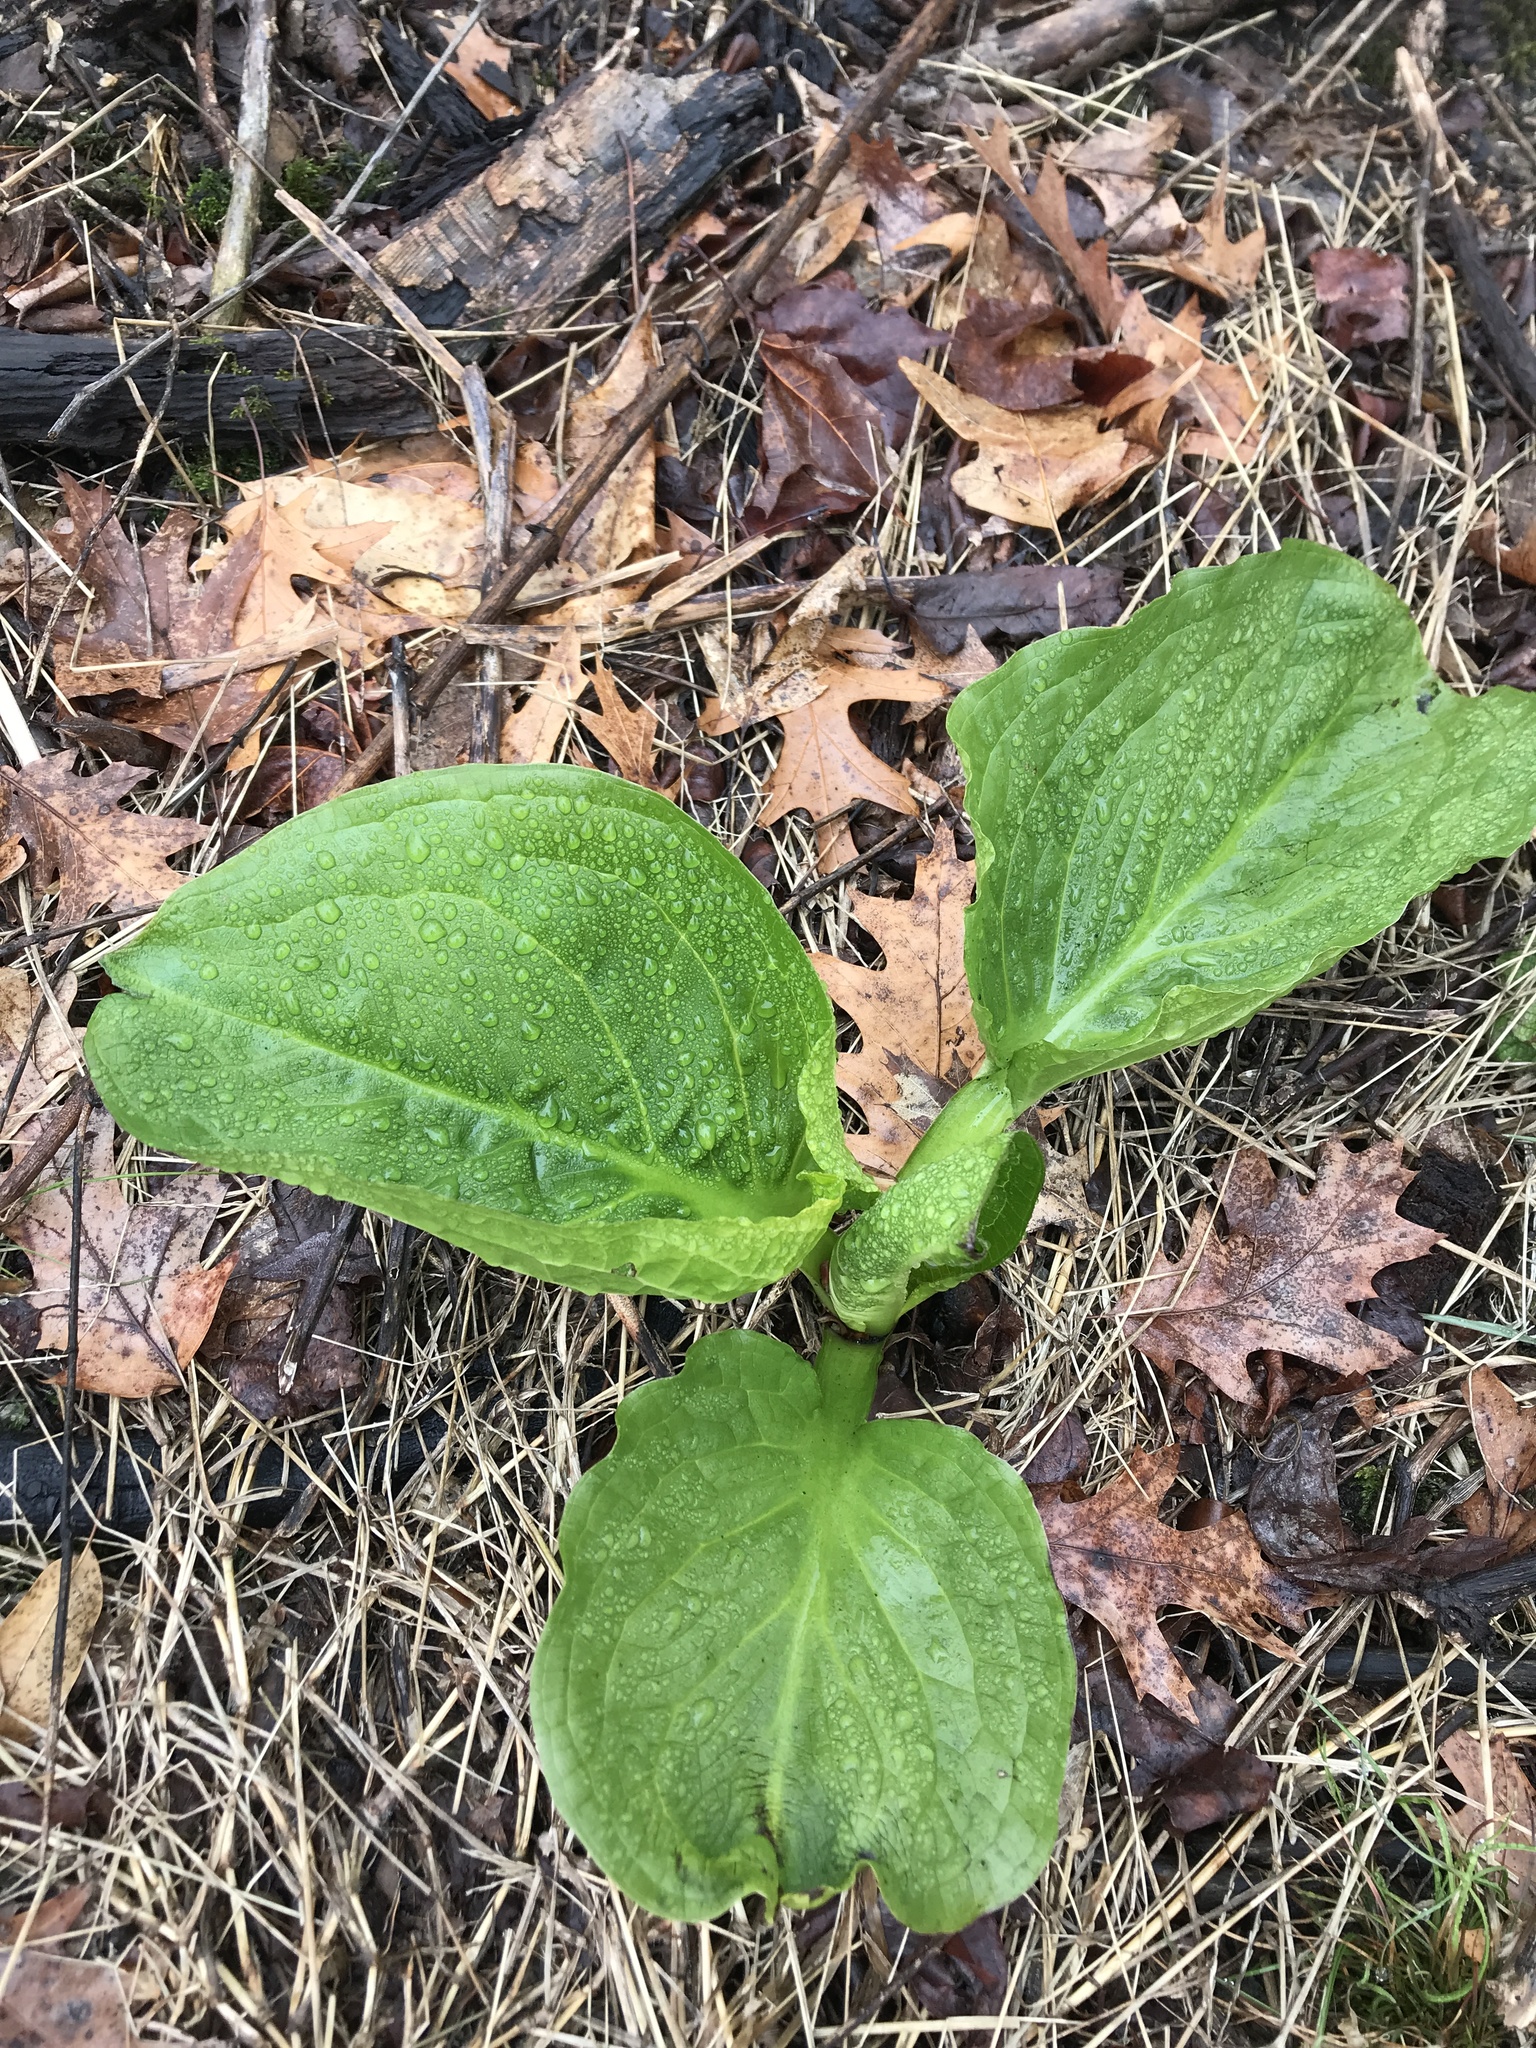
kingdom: Plantae
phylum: Tracheophyta
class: Liliopsida
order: Alismatales
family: Araceae
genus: Symplocarpus
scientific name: Symplocarpus foetidus
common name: Eastern skunk cabbage
